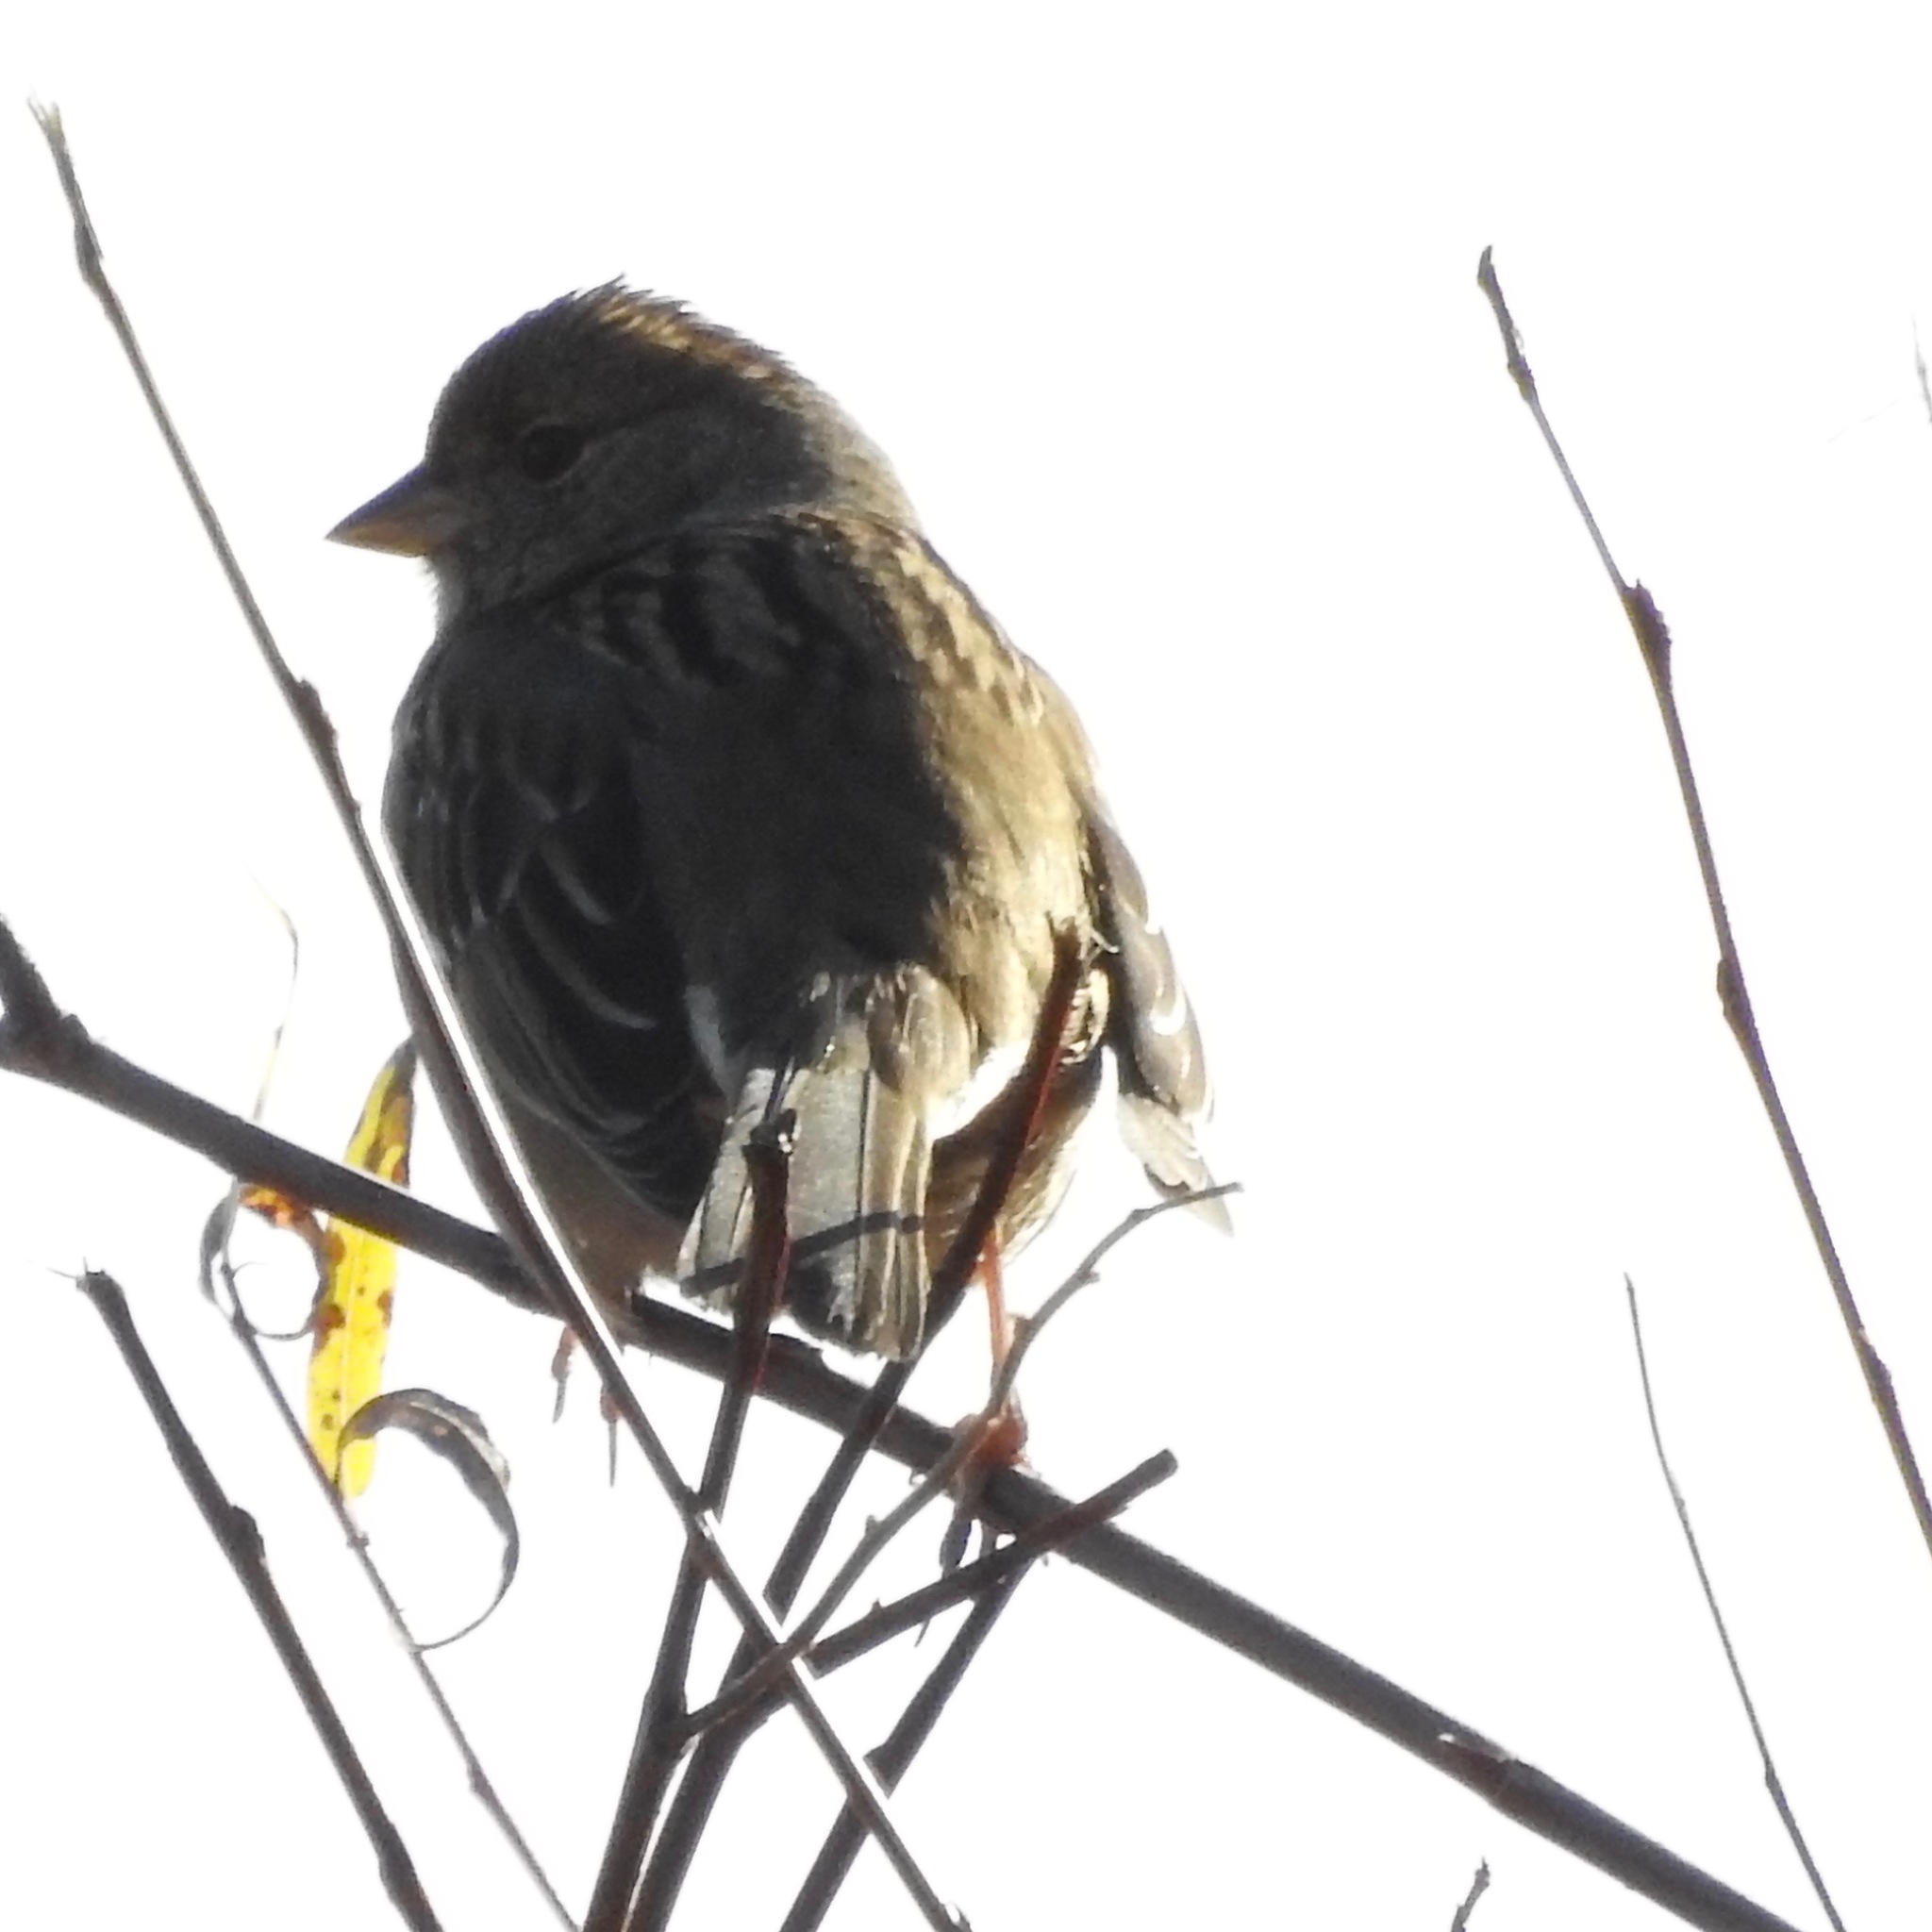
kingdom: Animalia
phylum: Chordata
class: Aves
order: Passeriformes
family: Passerellidae
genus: Zonotrichia
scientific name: Zonotrichia atricapilla
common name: Golden-crowned sparrow
